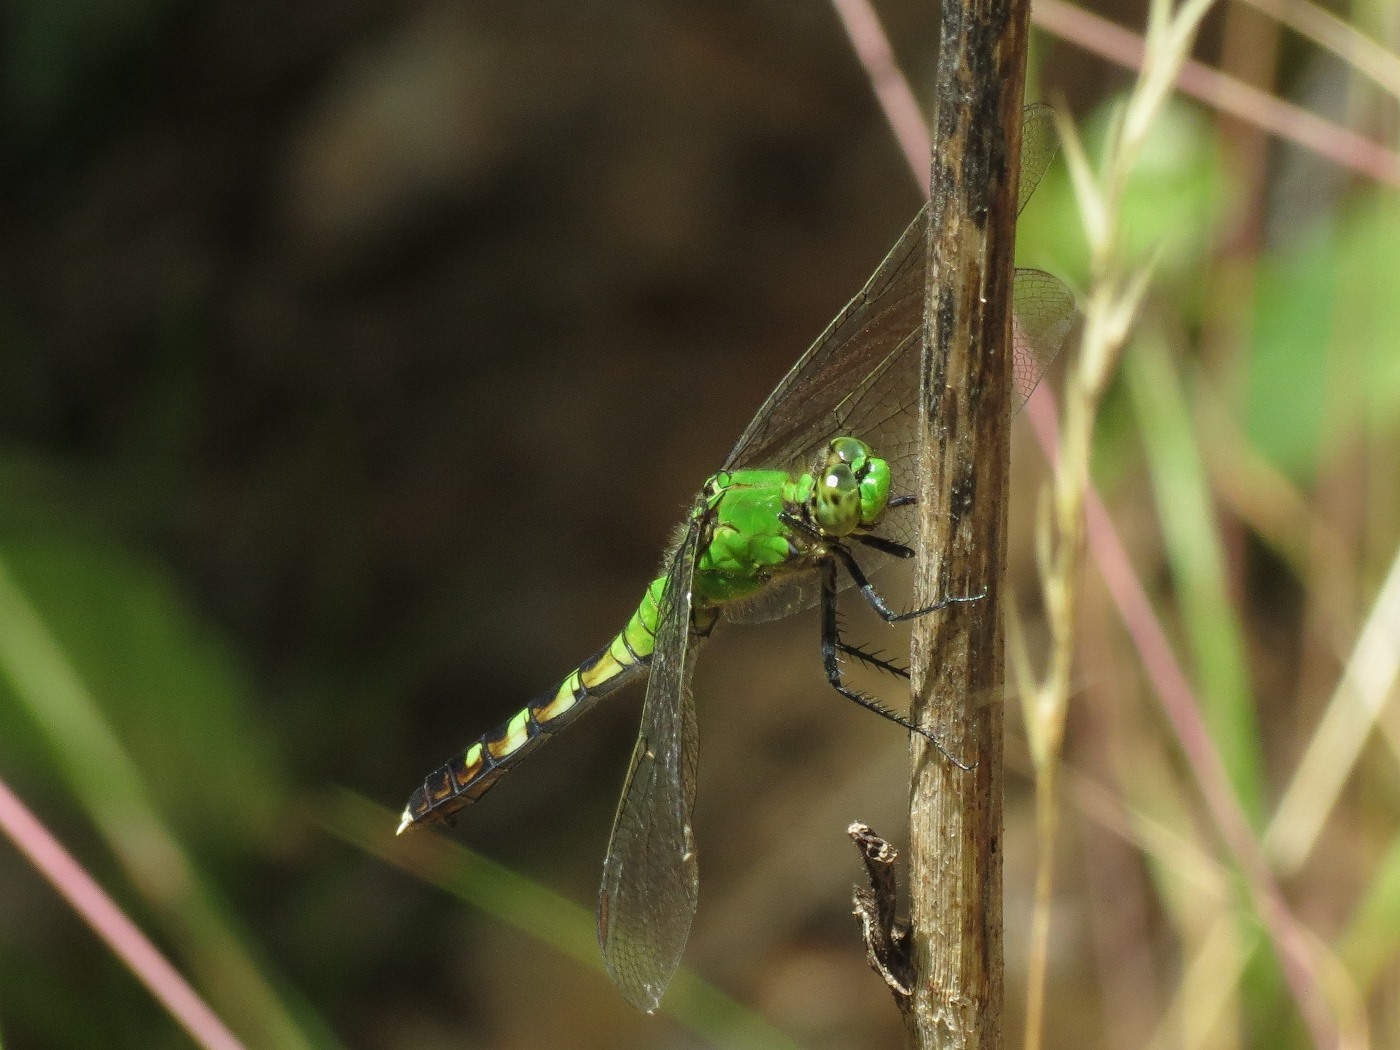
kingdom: Animalia
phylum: Arthropoda
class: Insecta
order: Odonata
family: Libellulidae
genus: Erythemis
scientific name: Erythemis simplicicollis
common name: Eastern pondhawk
